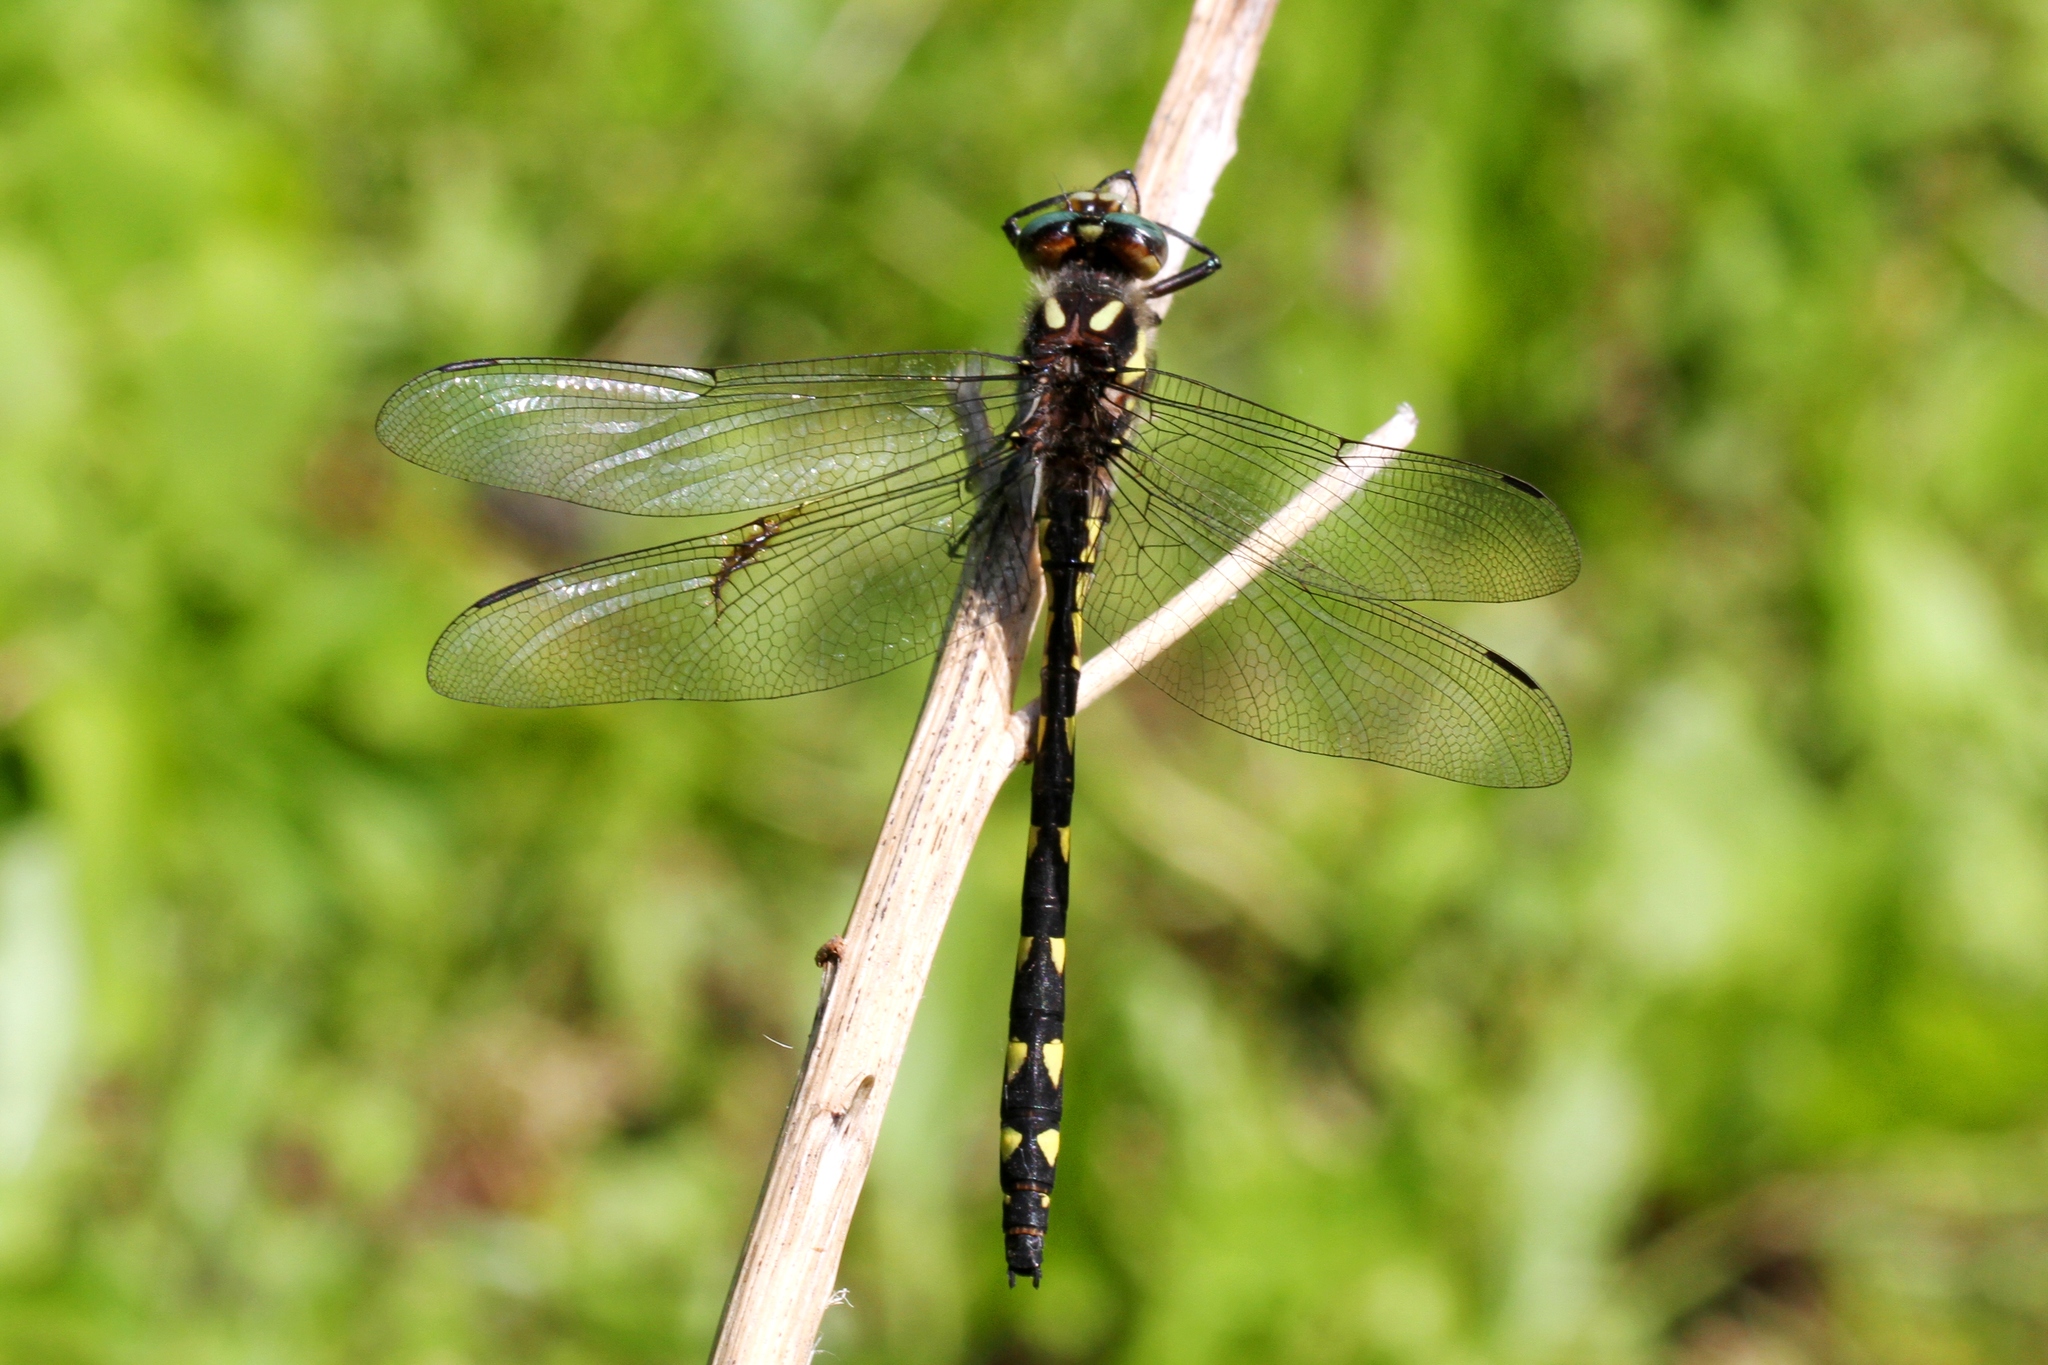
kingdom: Animalia
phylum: Arthropoda
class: Insecta
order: Odonata
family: Cordulegastridae
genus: Cordulegaster
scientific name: Cordulegaster diastatops
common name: Delta-spotted spiketail
